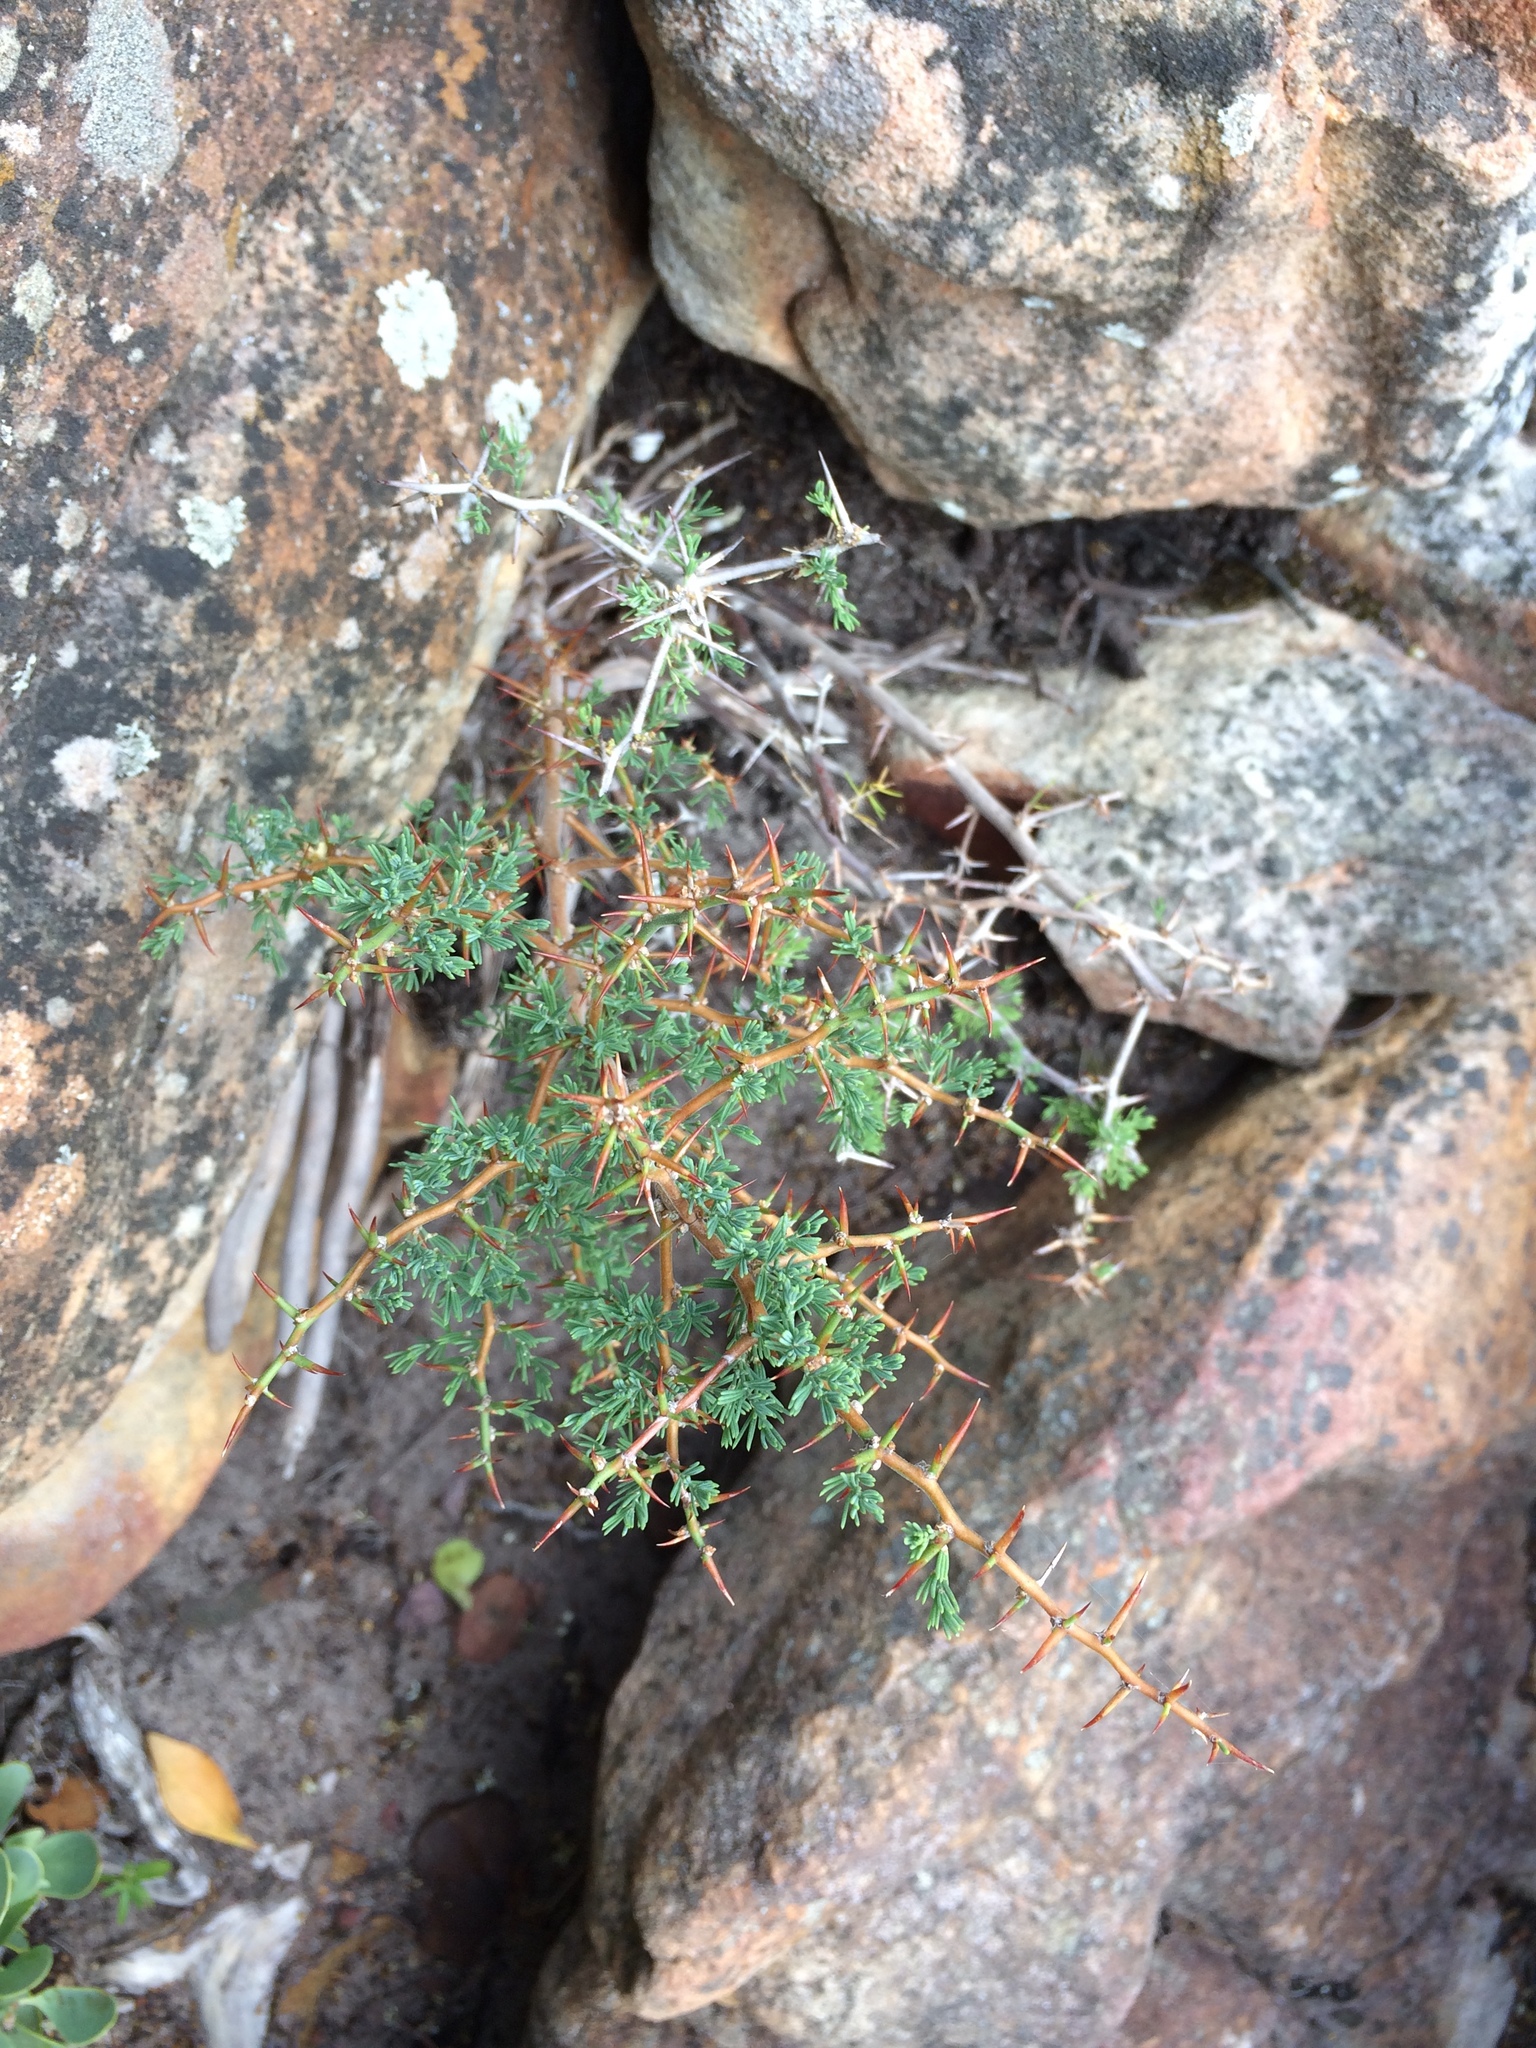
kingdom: Plantae
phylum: Tracheophyta
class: Liliopsida
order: Asparagales
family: Asparagaceae
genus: Asparagus
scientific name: Asparagus capensis
